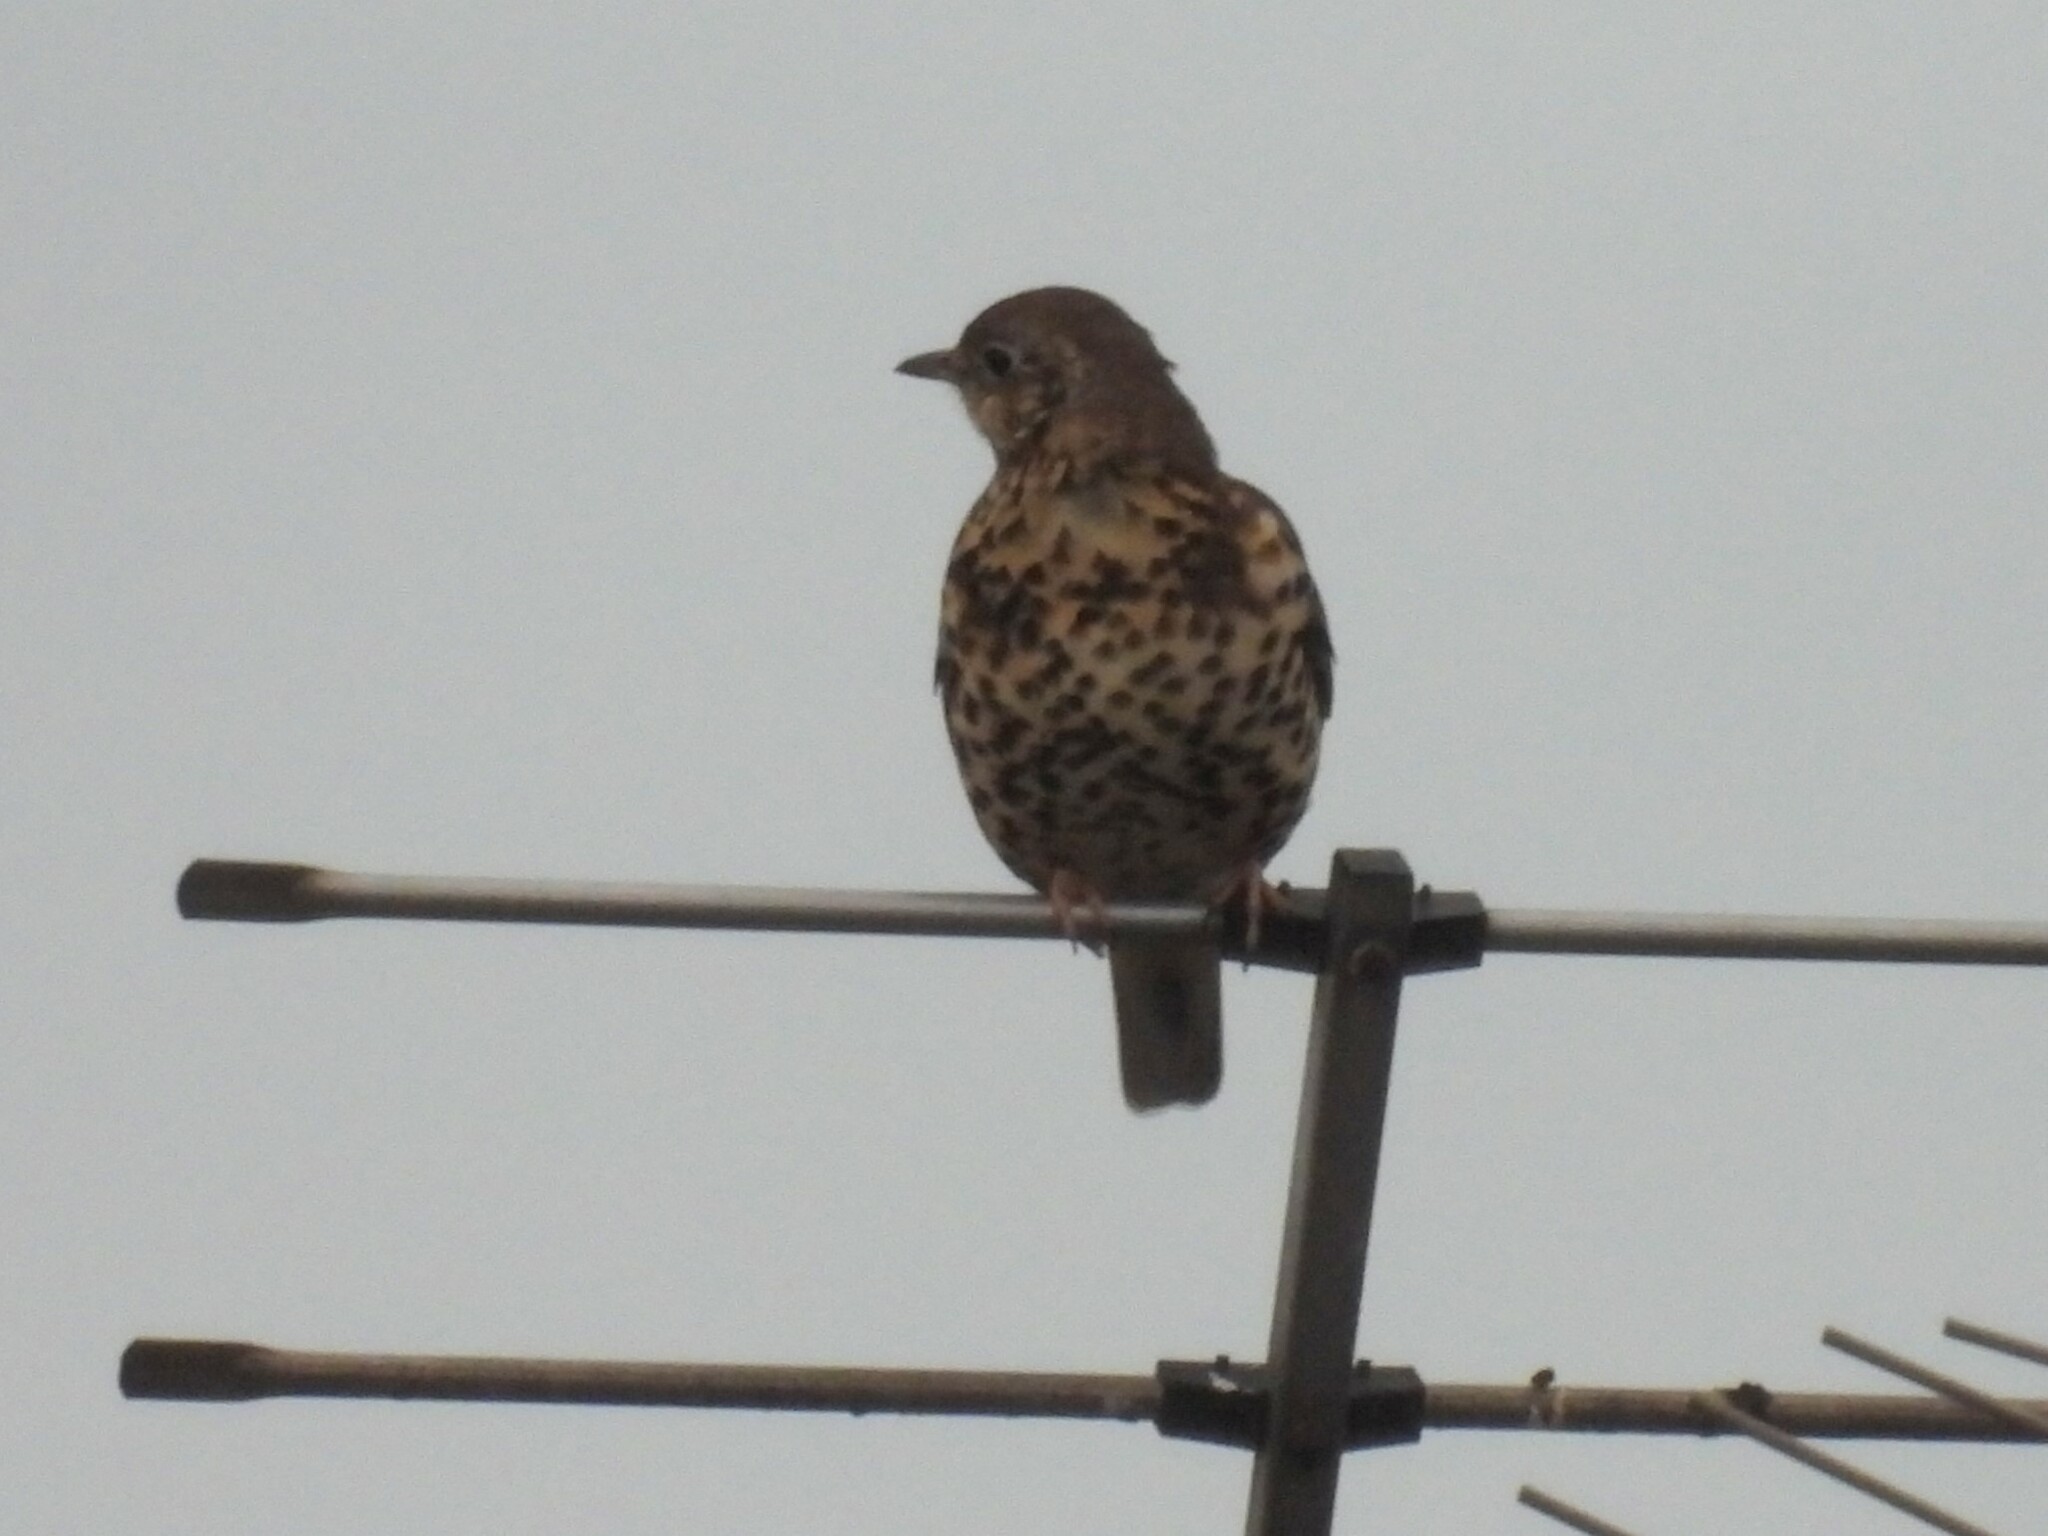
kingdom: Animalia
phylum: Chordata
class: Aves
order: Passeriformes
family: Turdidae
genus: Turdus
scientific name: Turdus viscivorus
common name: Mistle thrush
